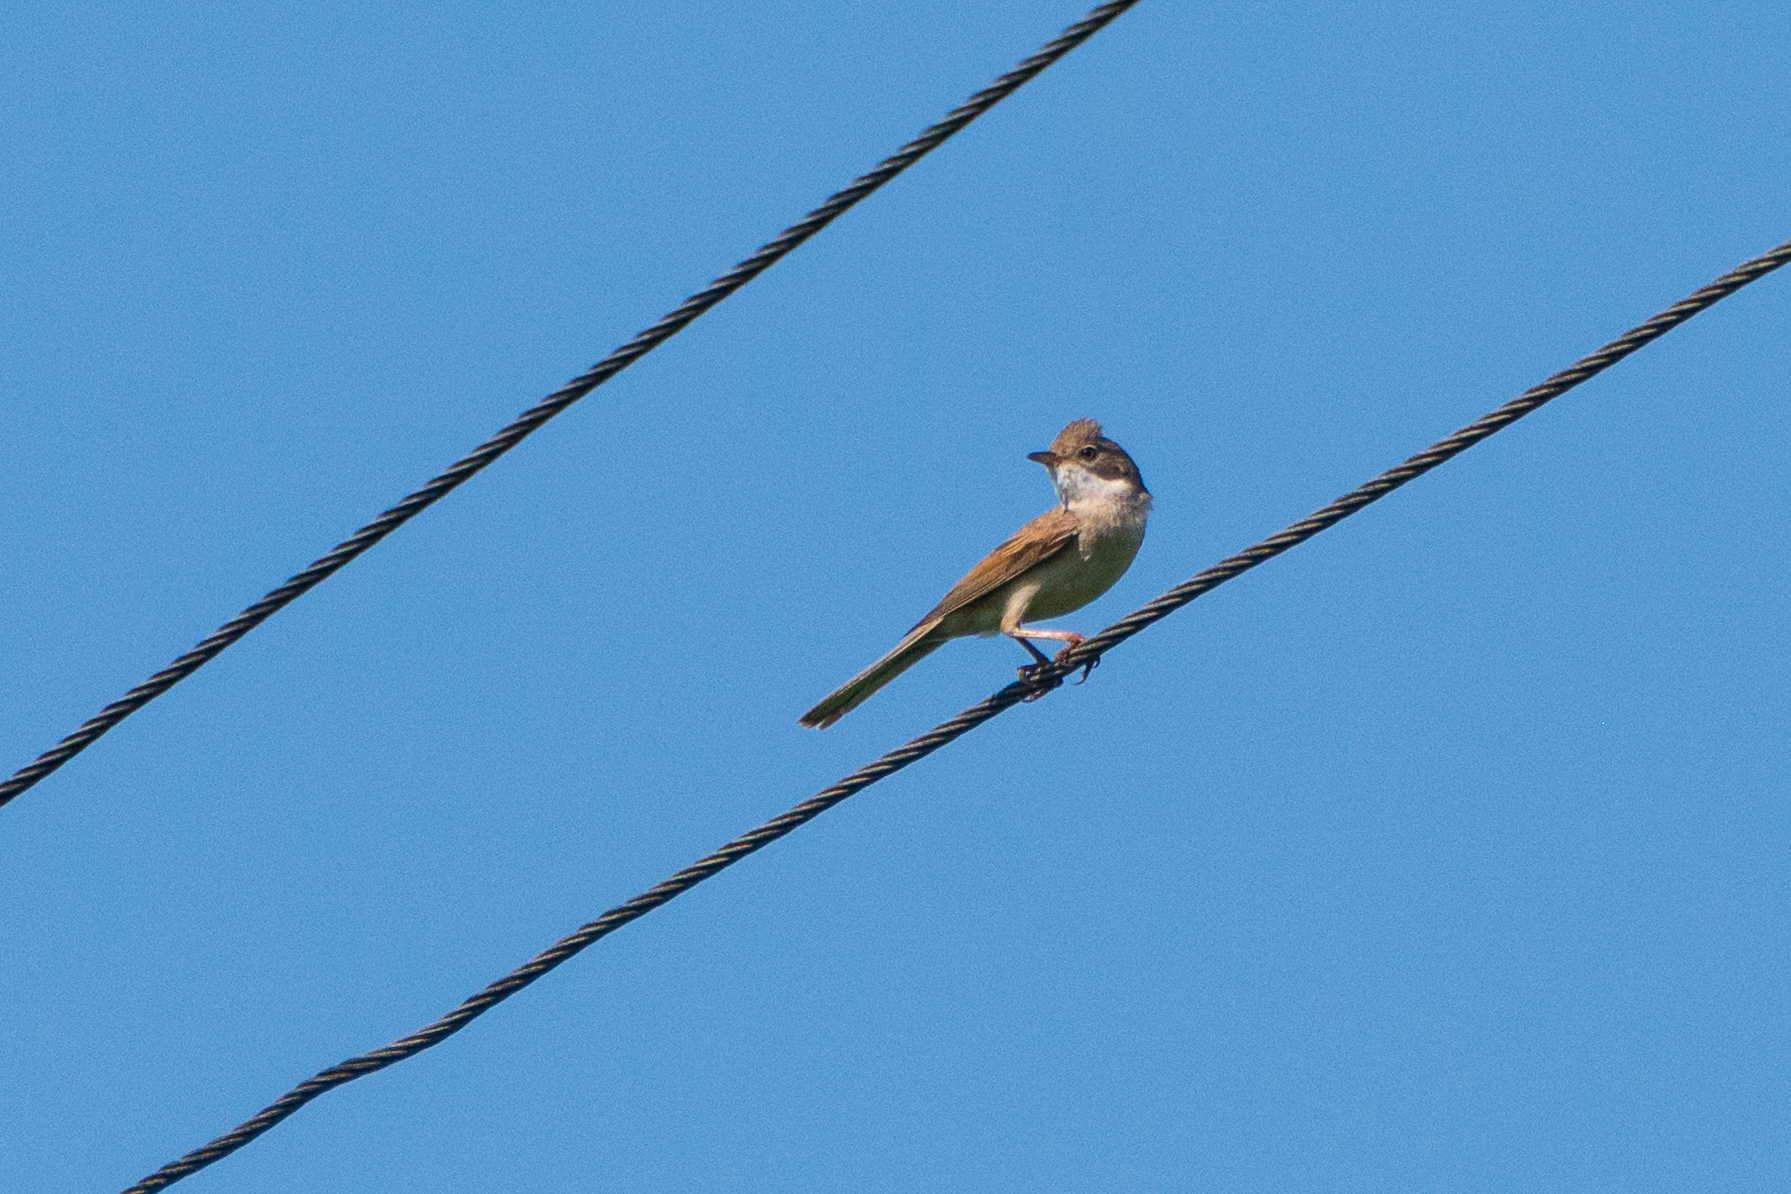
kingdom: Animalia
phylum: Chordata
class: Aves
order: Passeriformes
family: Sylviidae
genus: Sylvia
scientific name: Sylvia communis
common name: Common whitethroat
